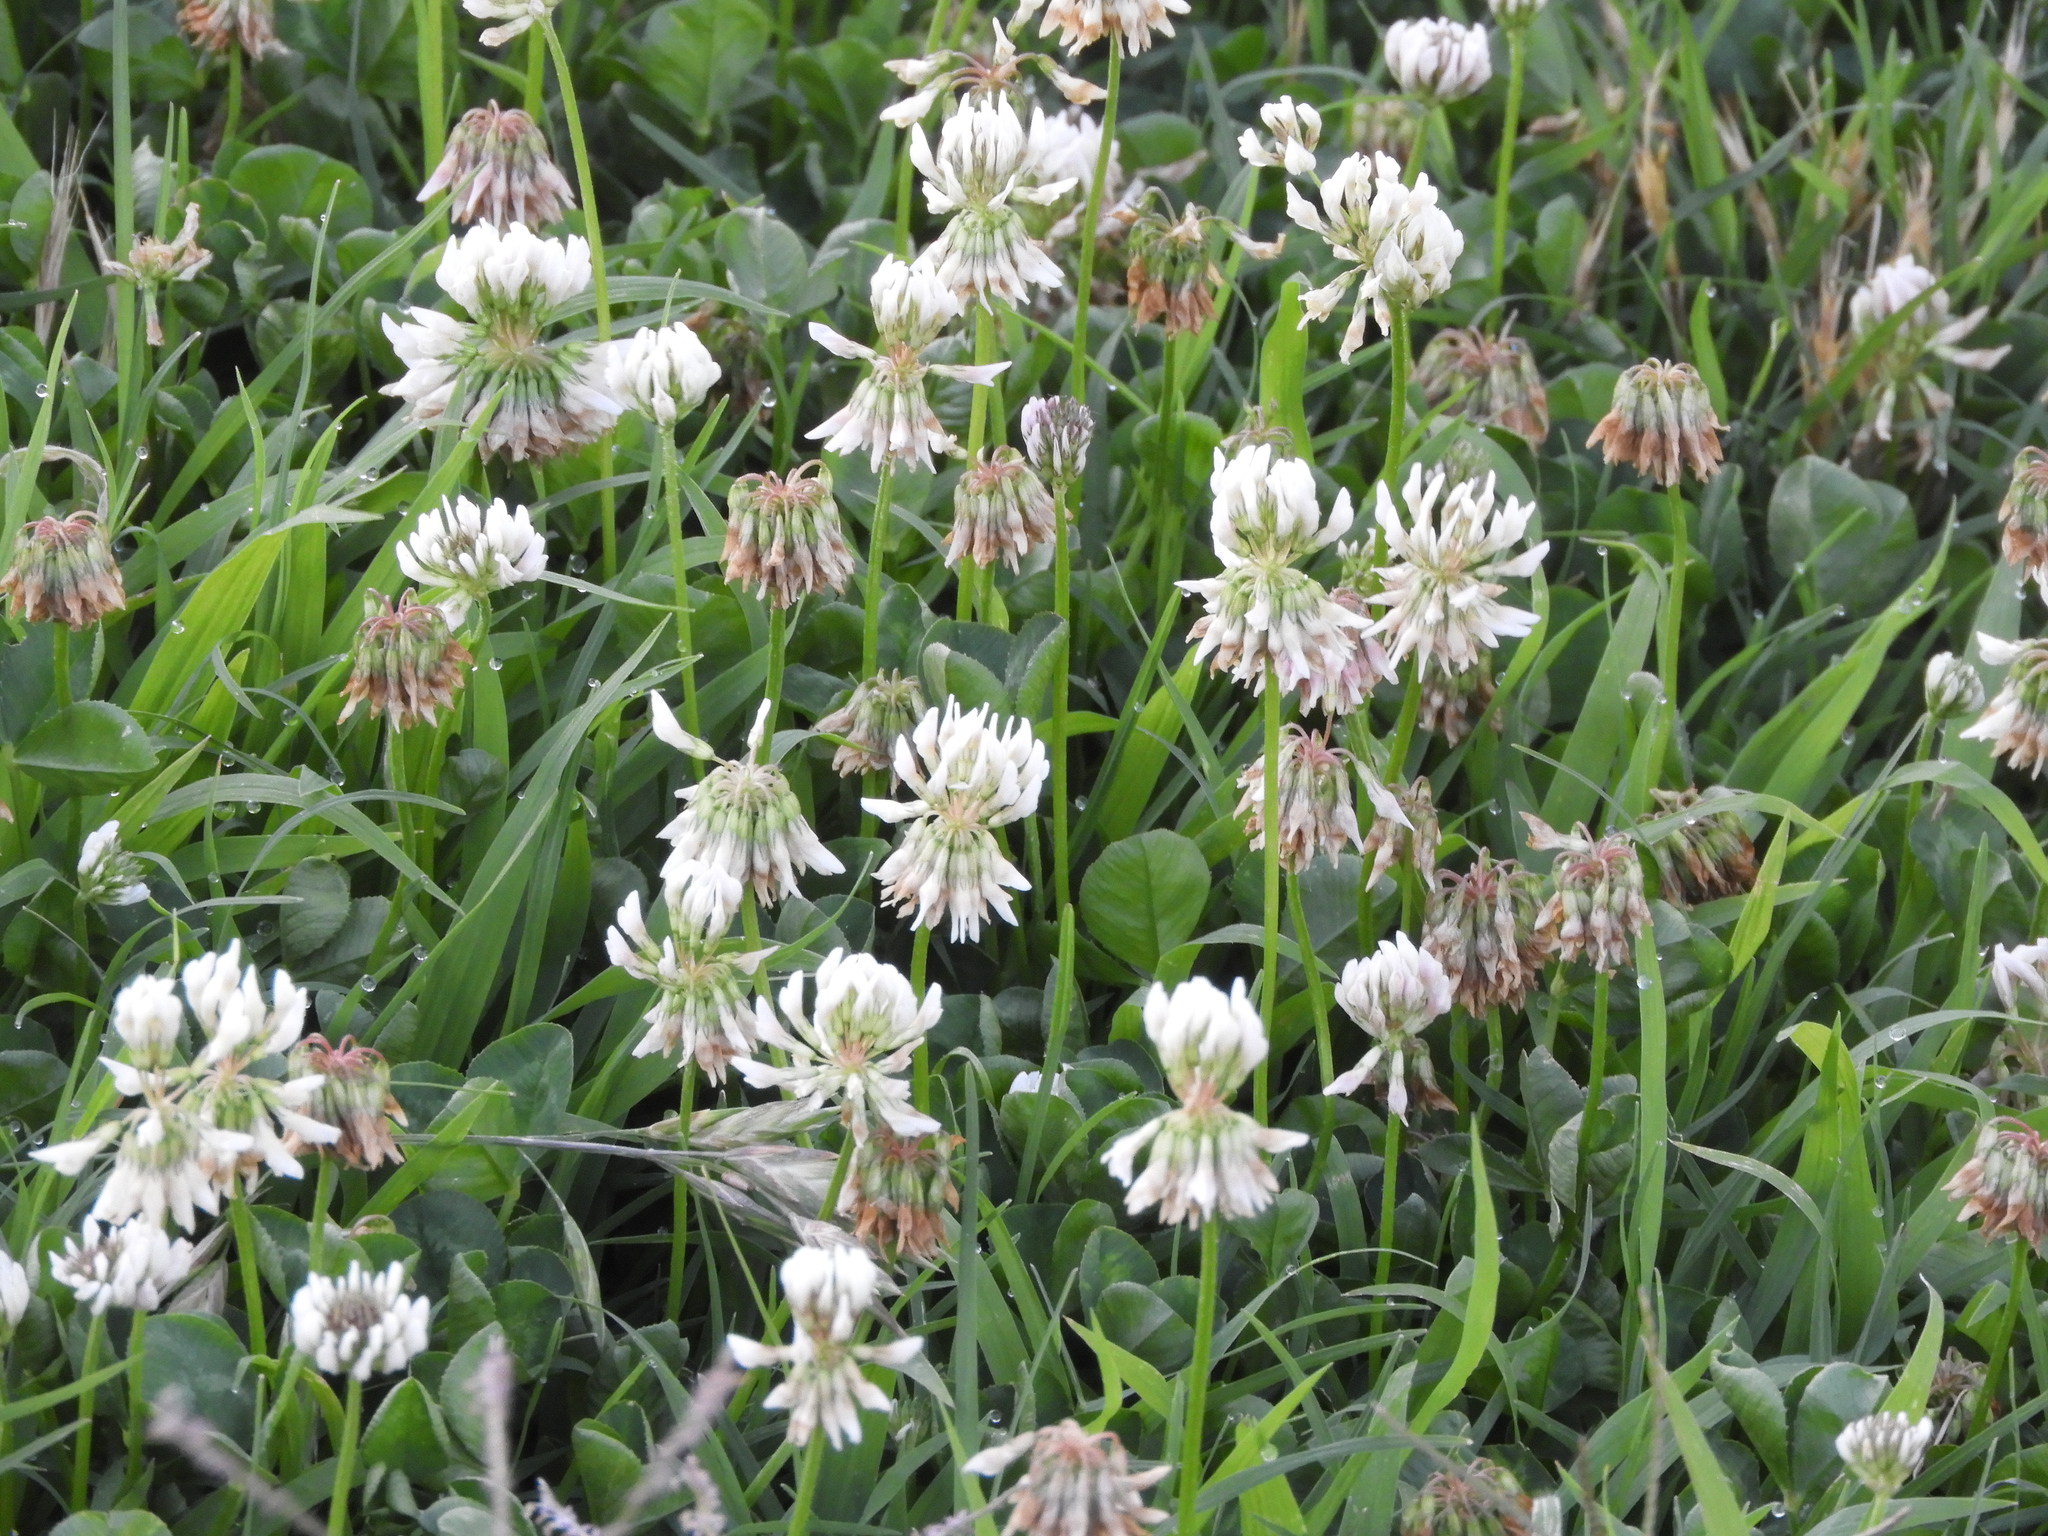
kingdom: Plantae
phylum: Tracheophyta
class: Magnoliopsida
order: Fabales
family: Fabaceae
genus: Trifolium
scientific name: Trifolium repens
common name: White clover
